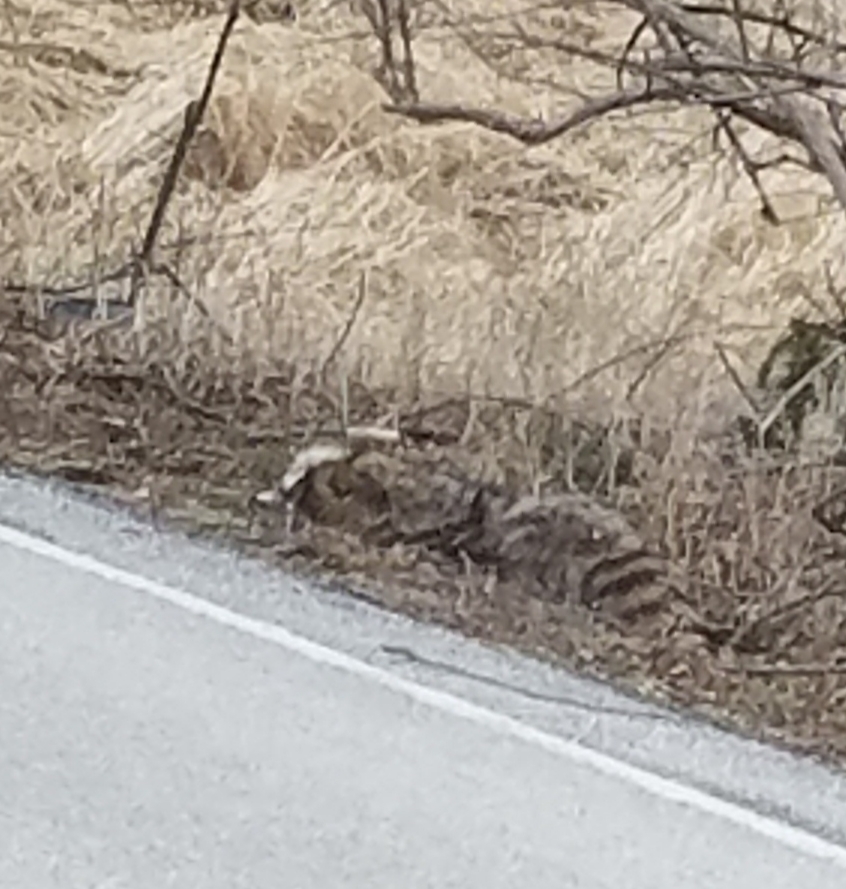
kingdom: Animalia
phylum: Chordata
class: Mammalia
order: Carnivora
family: Procyonidae
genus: Procyon
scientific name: Procyon lotor
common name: Raccoon
